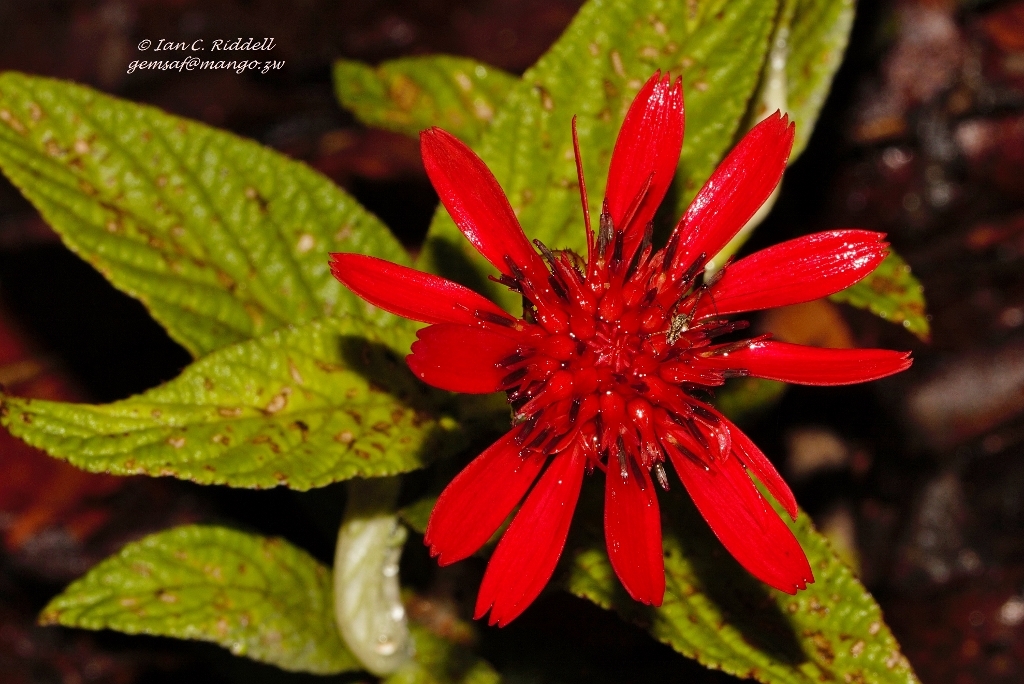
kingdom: Plantae
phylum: Tracheophyta
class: Magnoliopsida
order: Asterales
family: Asteraceae
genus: Erythrocephalum
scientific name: Erythrocephalum longifolium
